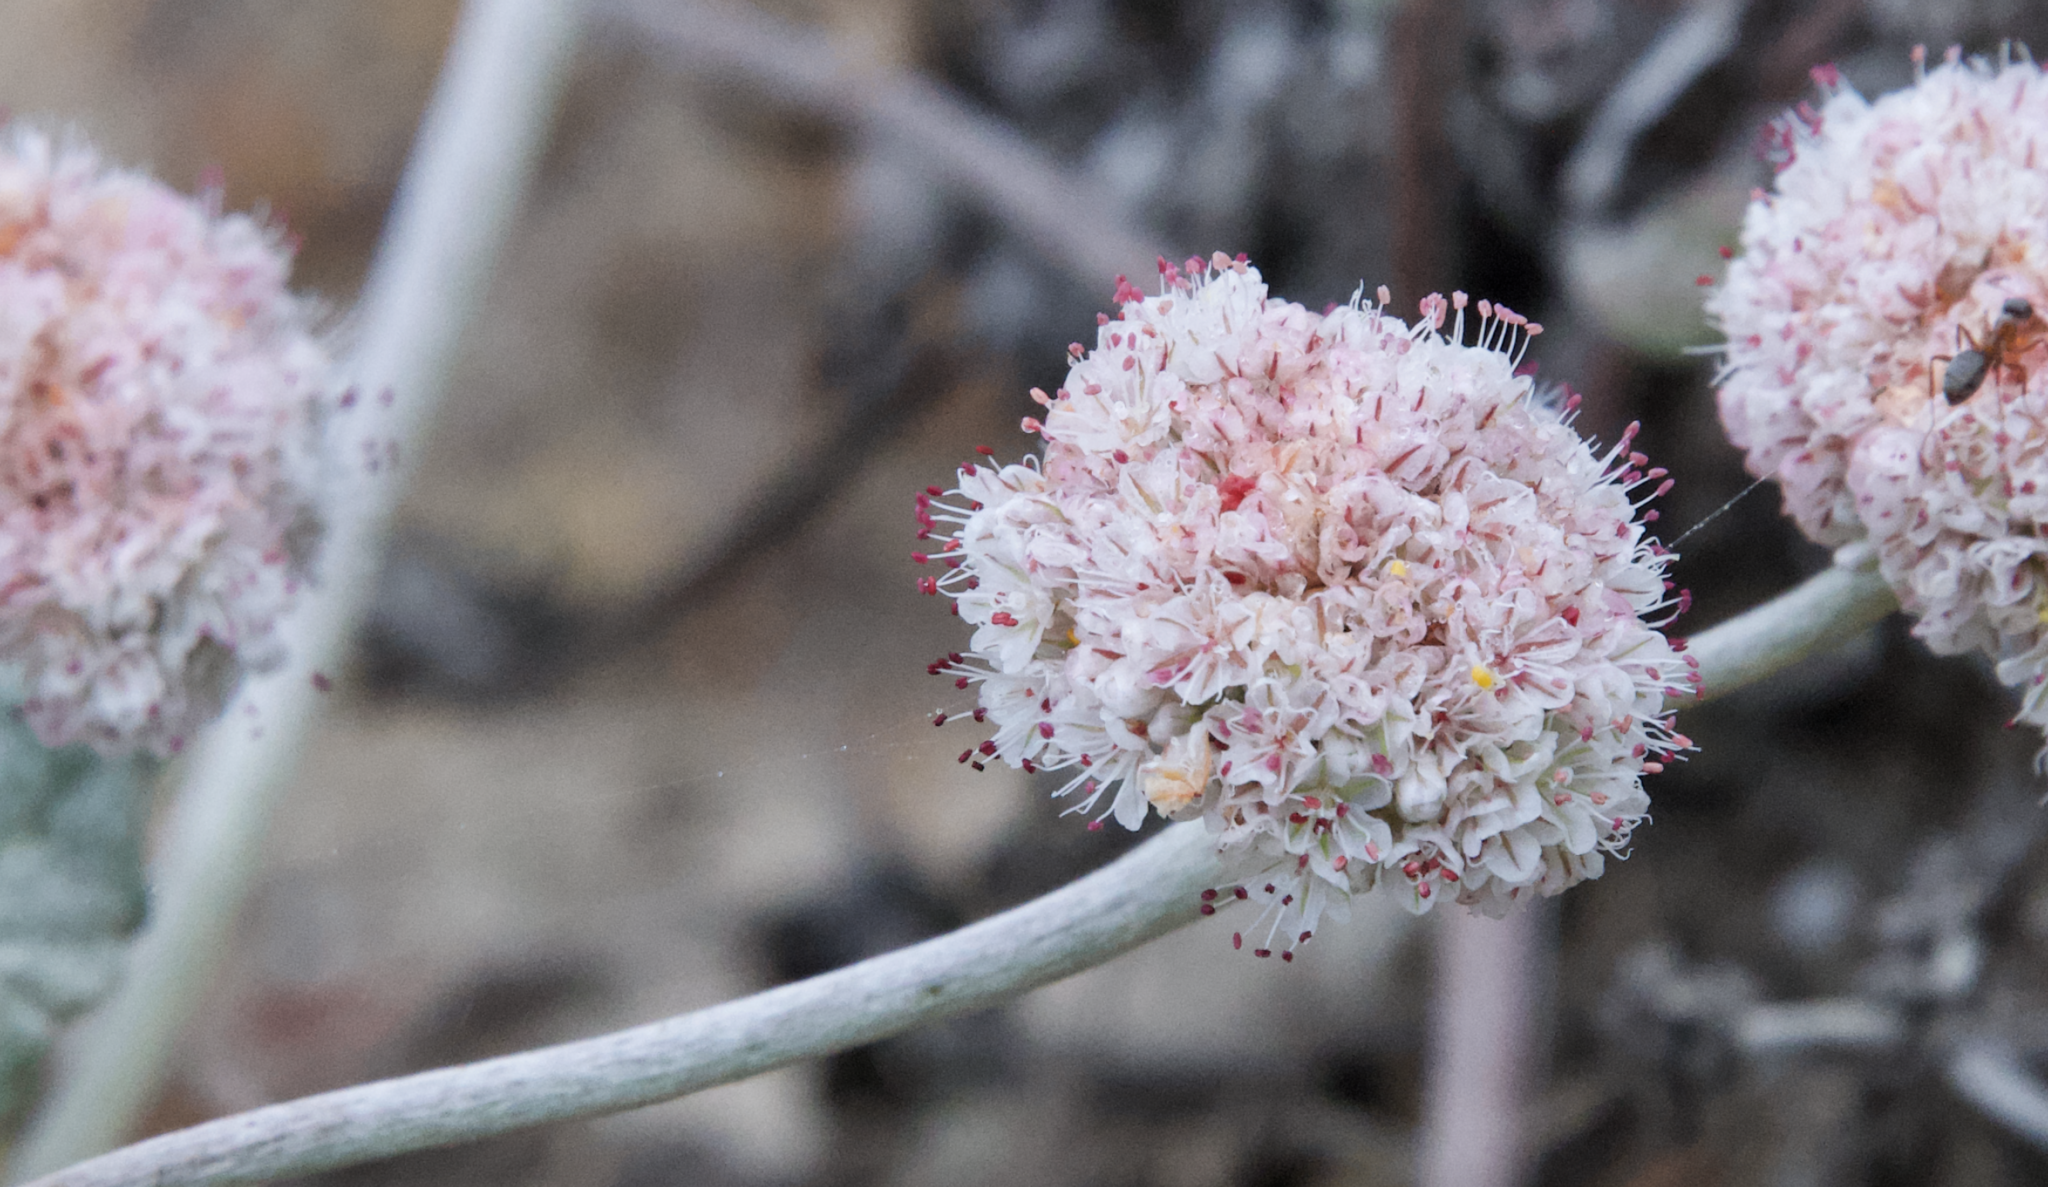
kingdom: Plantae
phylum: Tracheophyta
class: Magnoliopsida
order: Caryophyllales
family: Polygonaceae
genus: Eriogonum
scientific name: Eriogonum latifolium
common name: Seaside wild buckwheat
